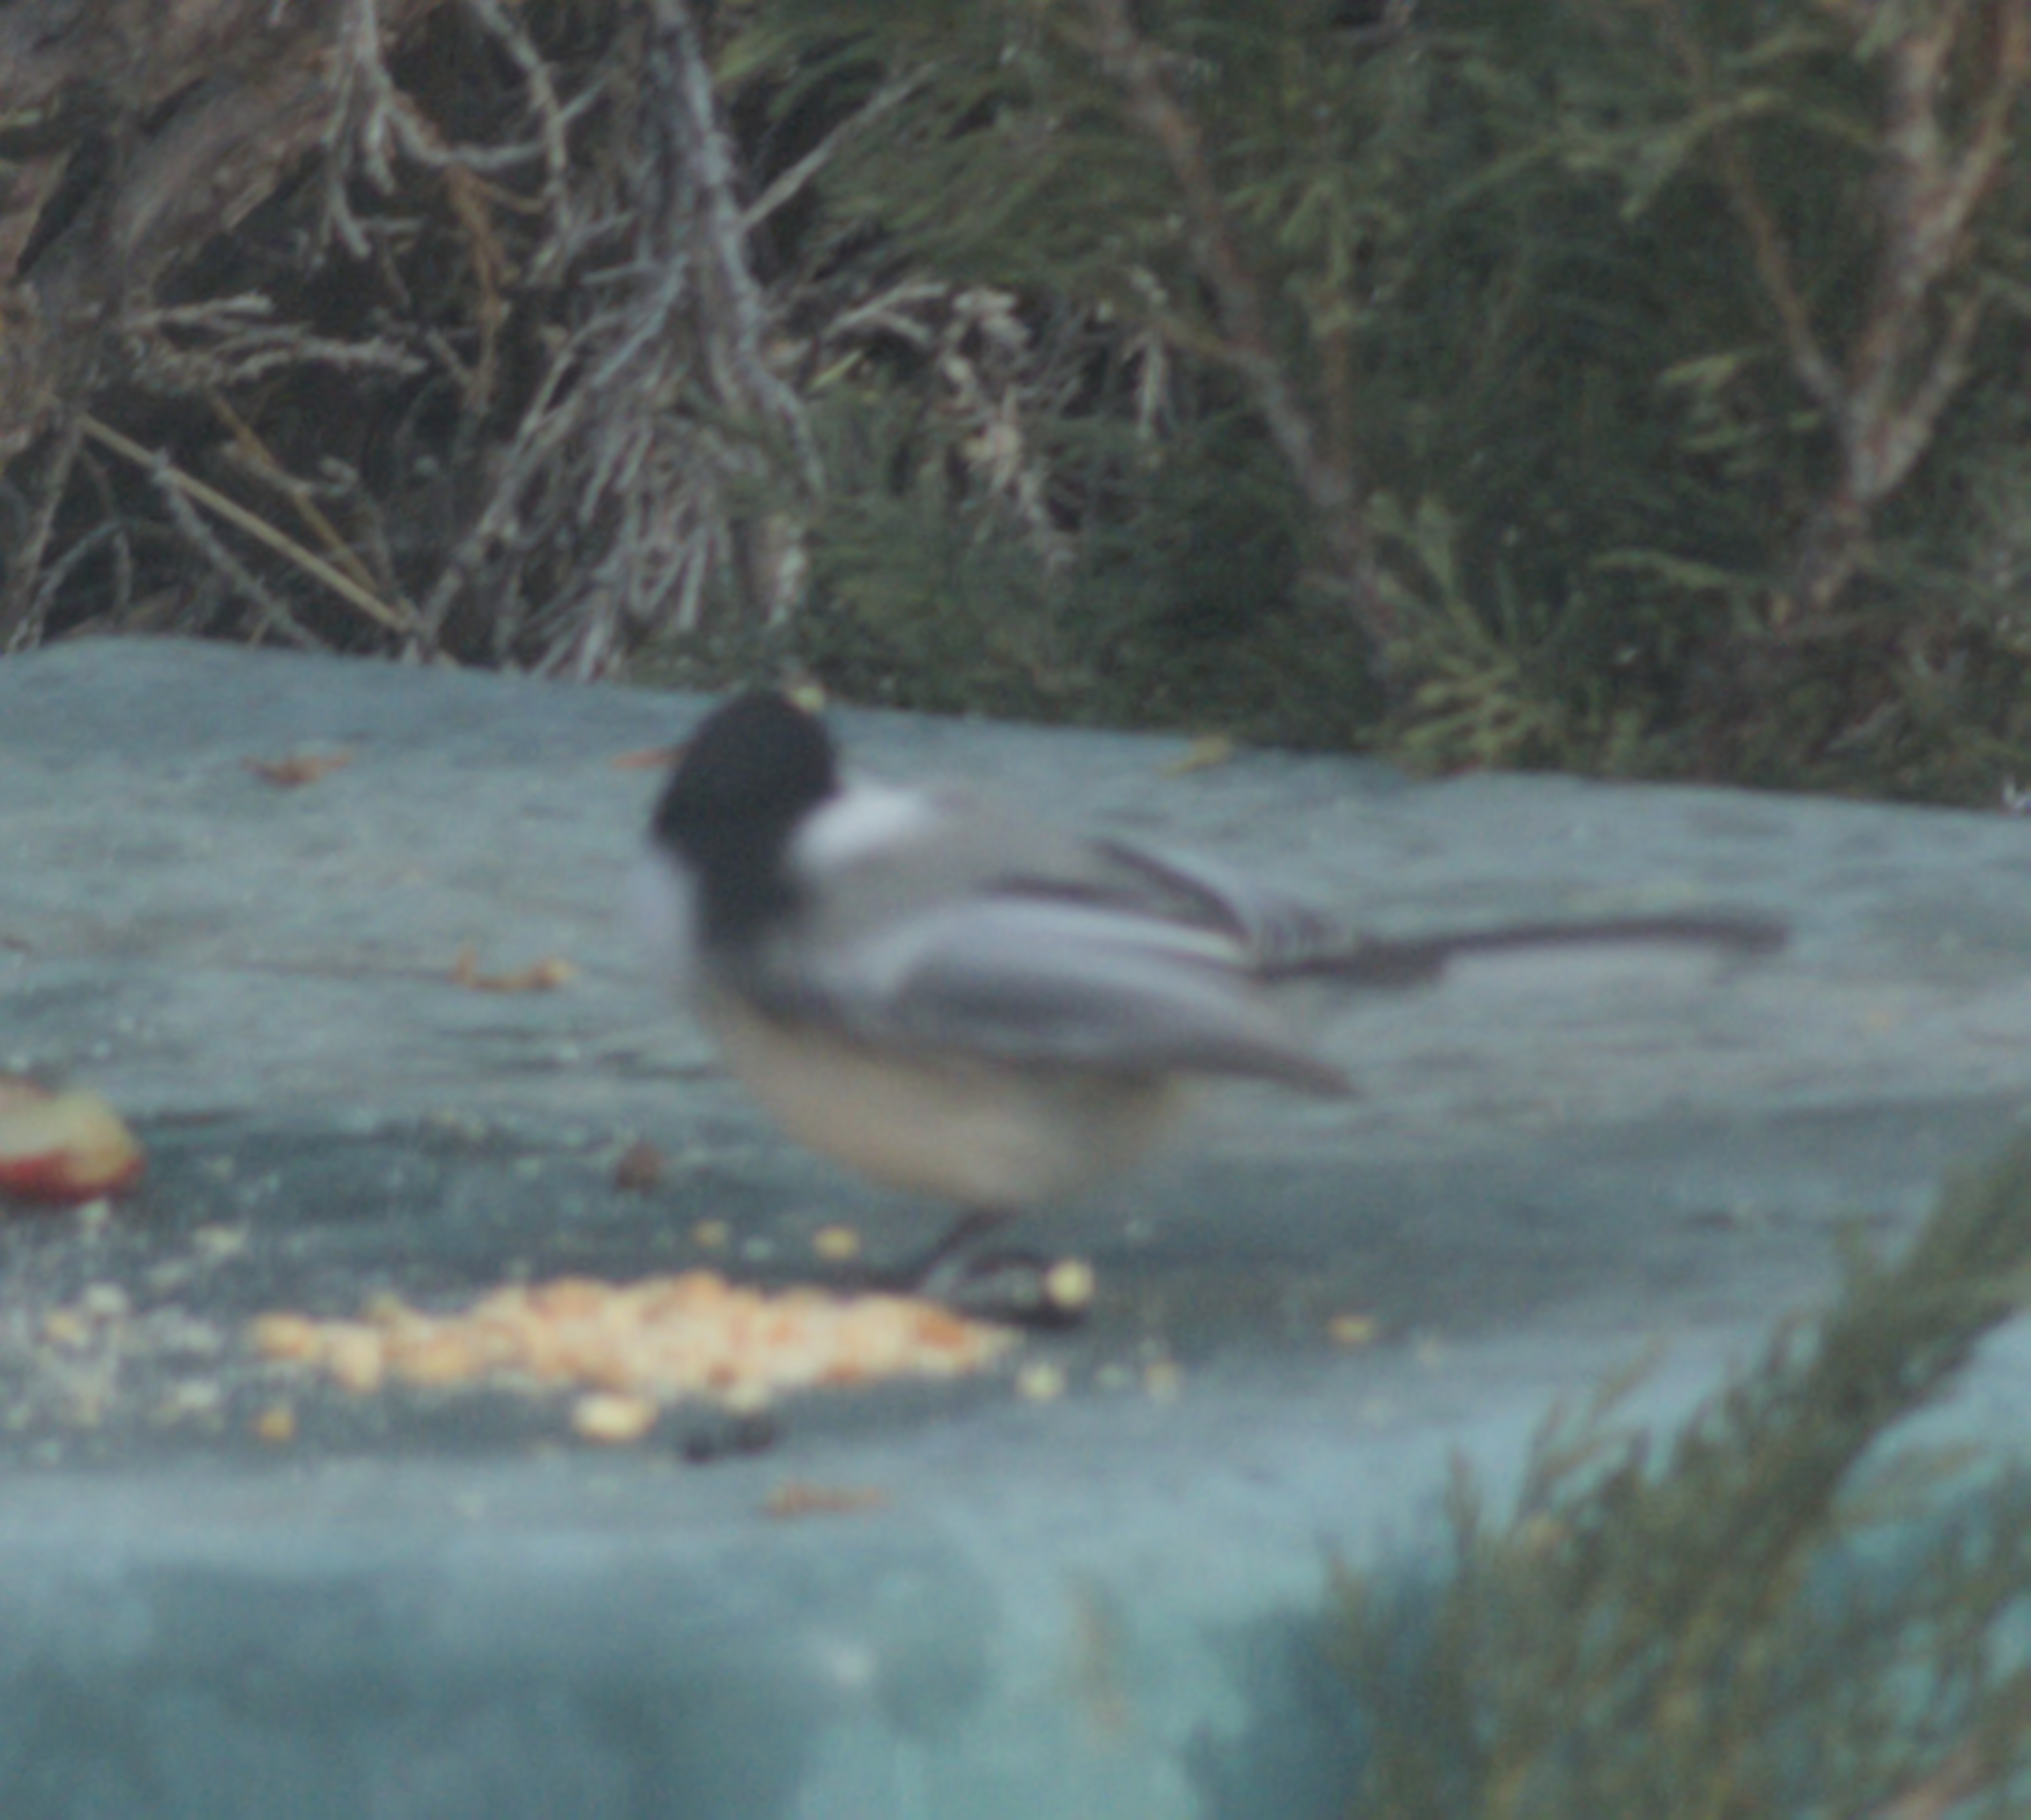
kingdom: Animalia
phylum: Chordata
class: Aves
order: Passeriformes
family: Paridae
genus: Poecile
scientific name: Poecile atricapillus
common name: Black-capped chickadee
